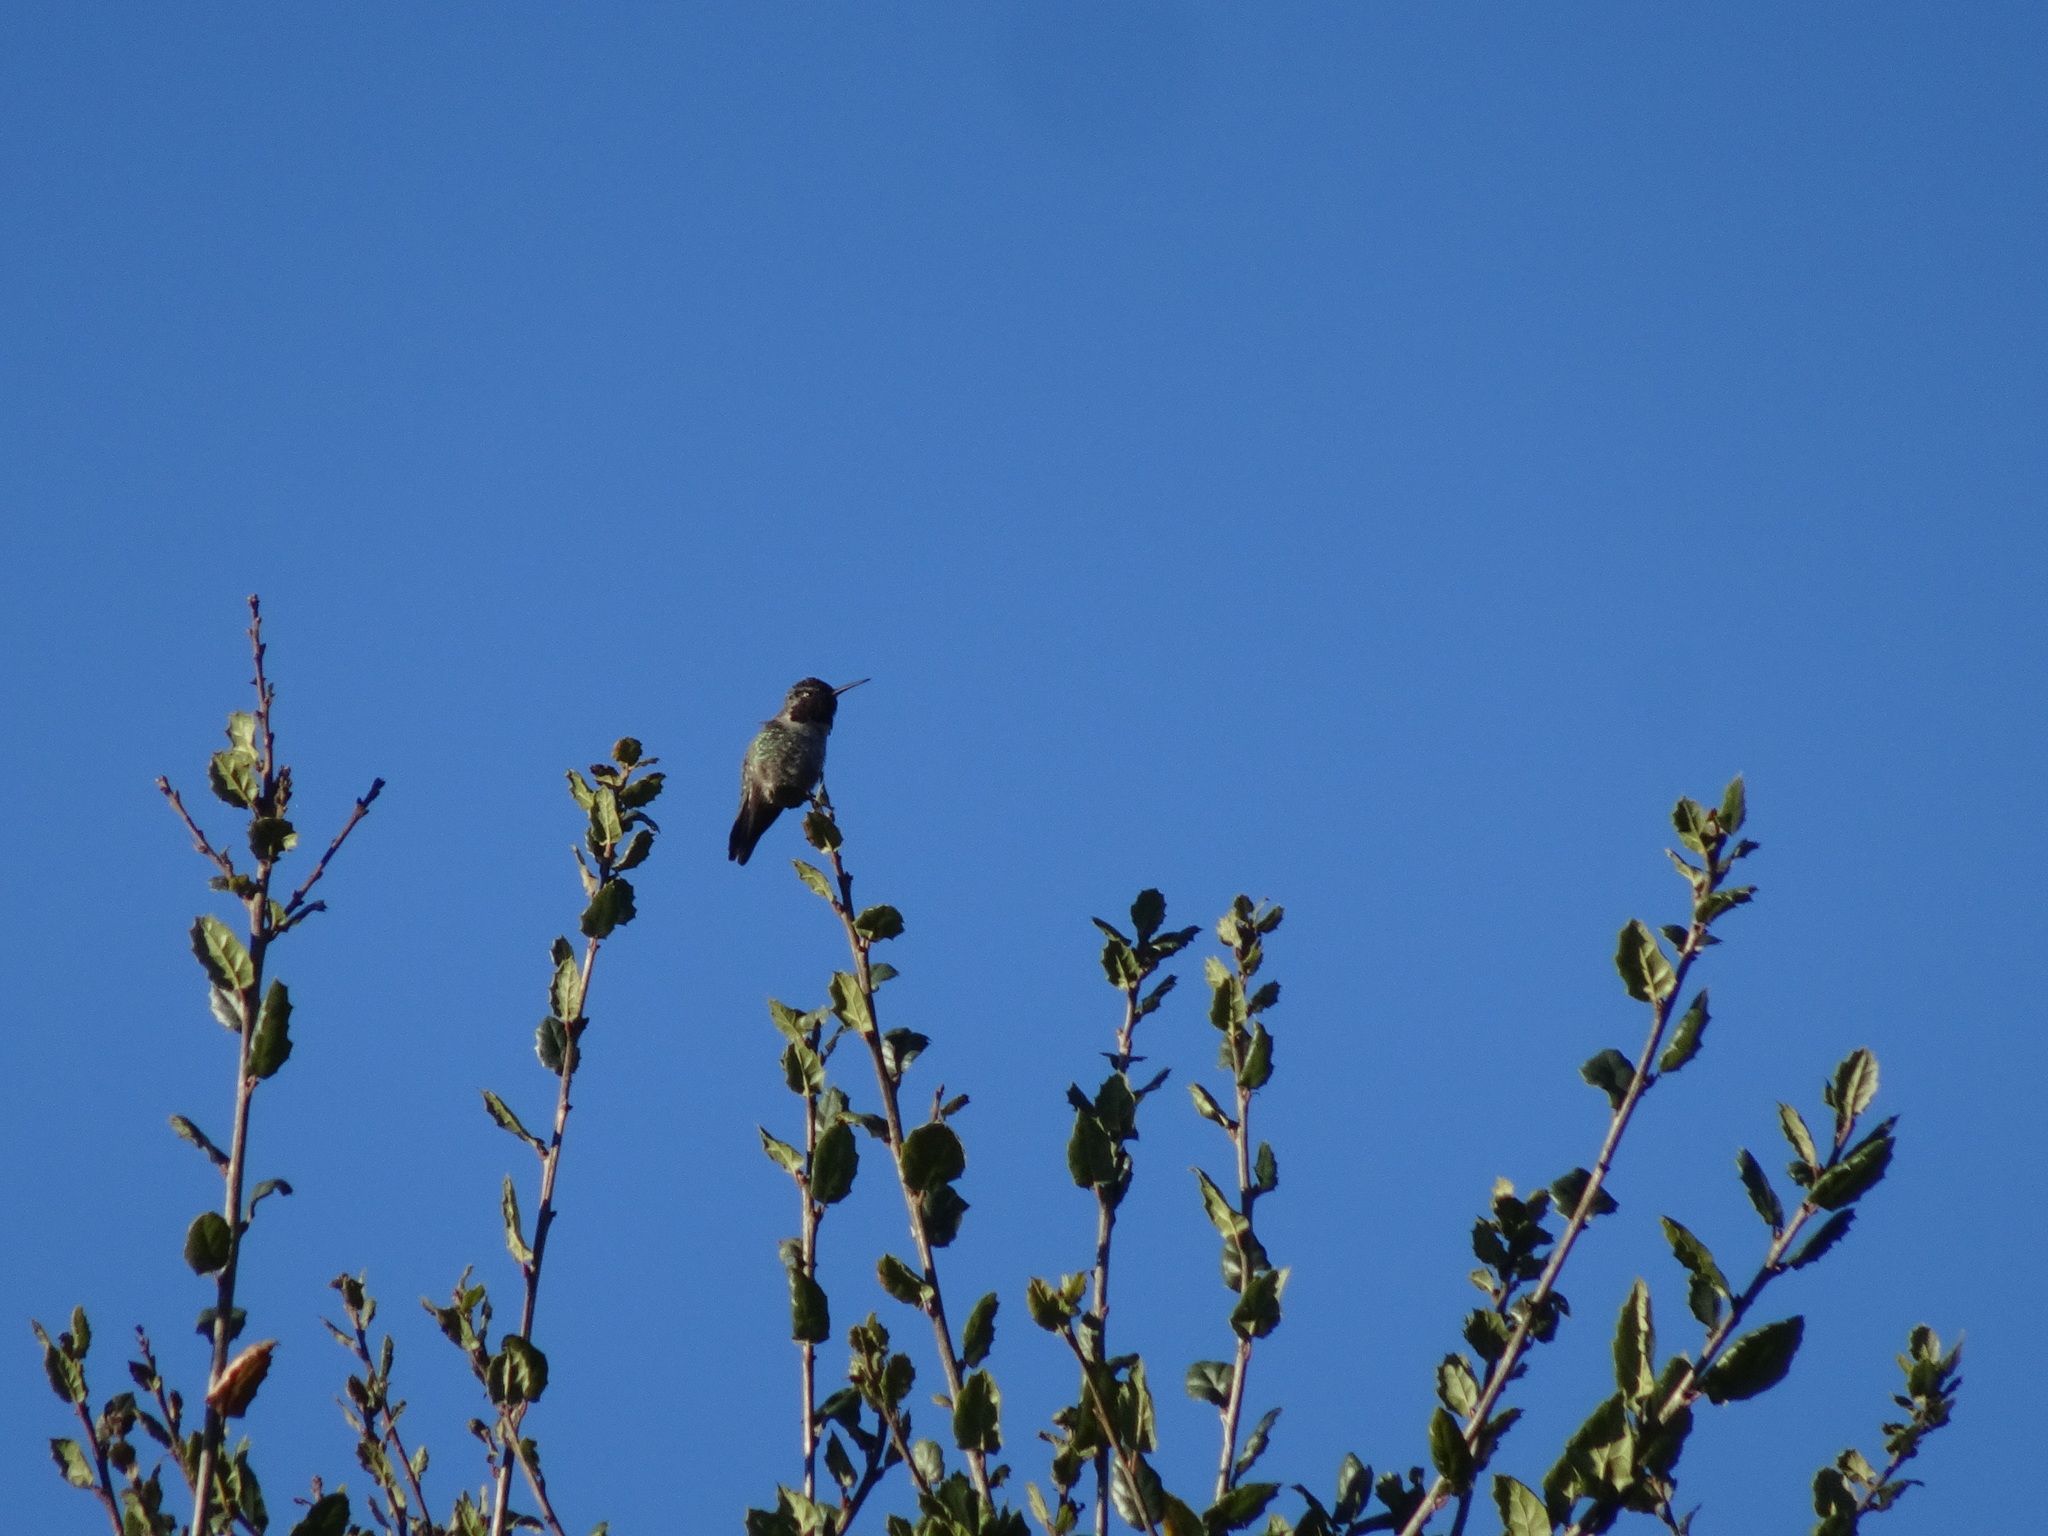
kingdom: Animalia
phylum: Chordata
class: Aves
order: Apodiformes
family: Trochilidae
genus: Calypte
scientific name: Calypte anna
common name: Anna's hummingbird
